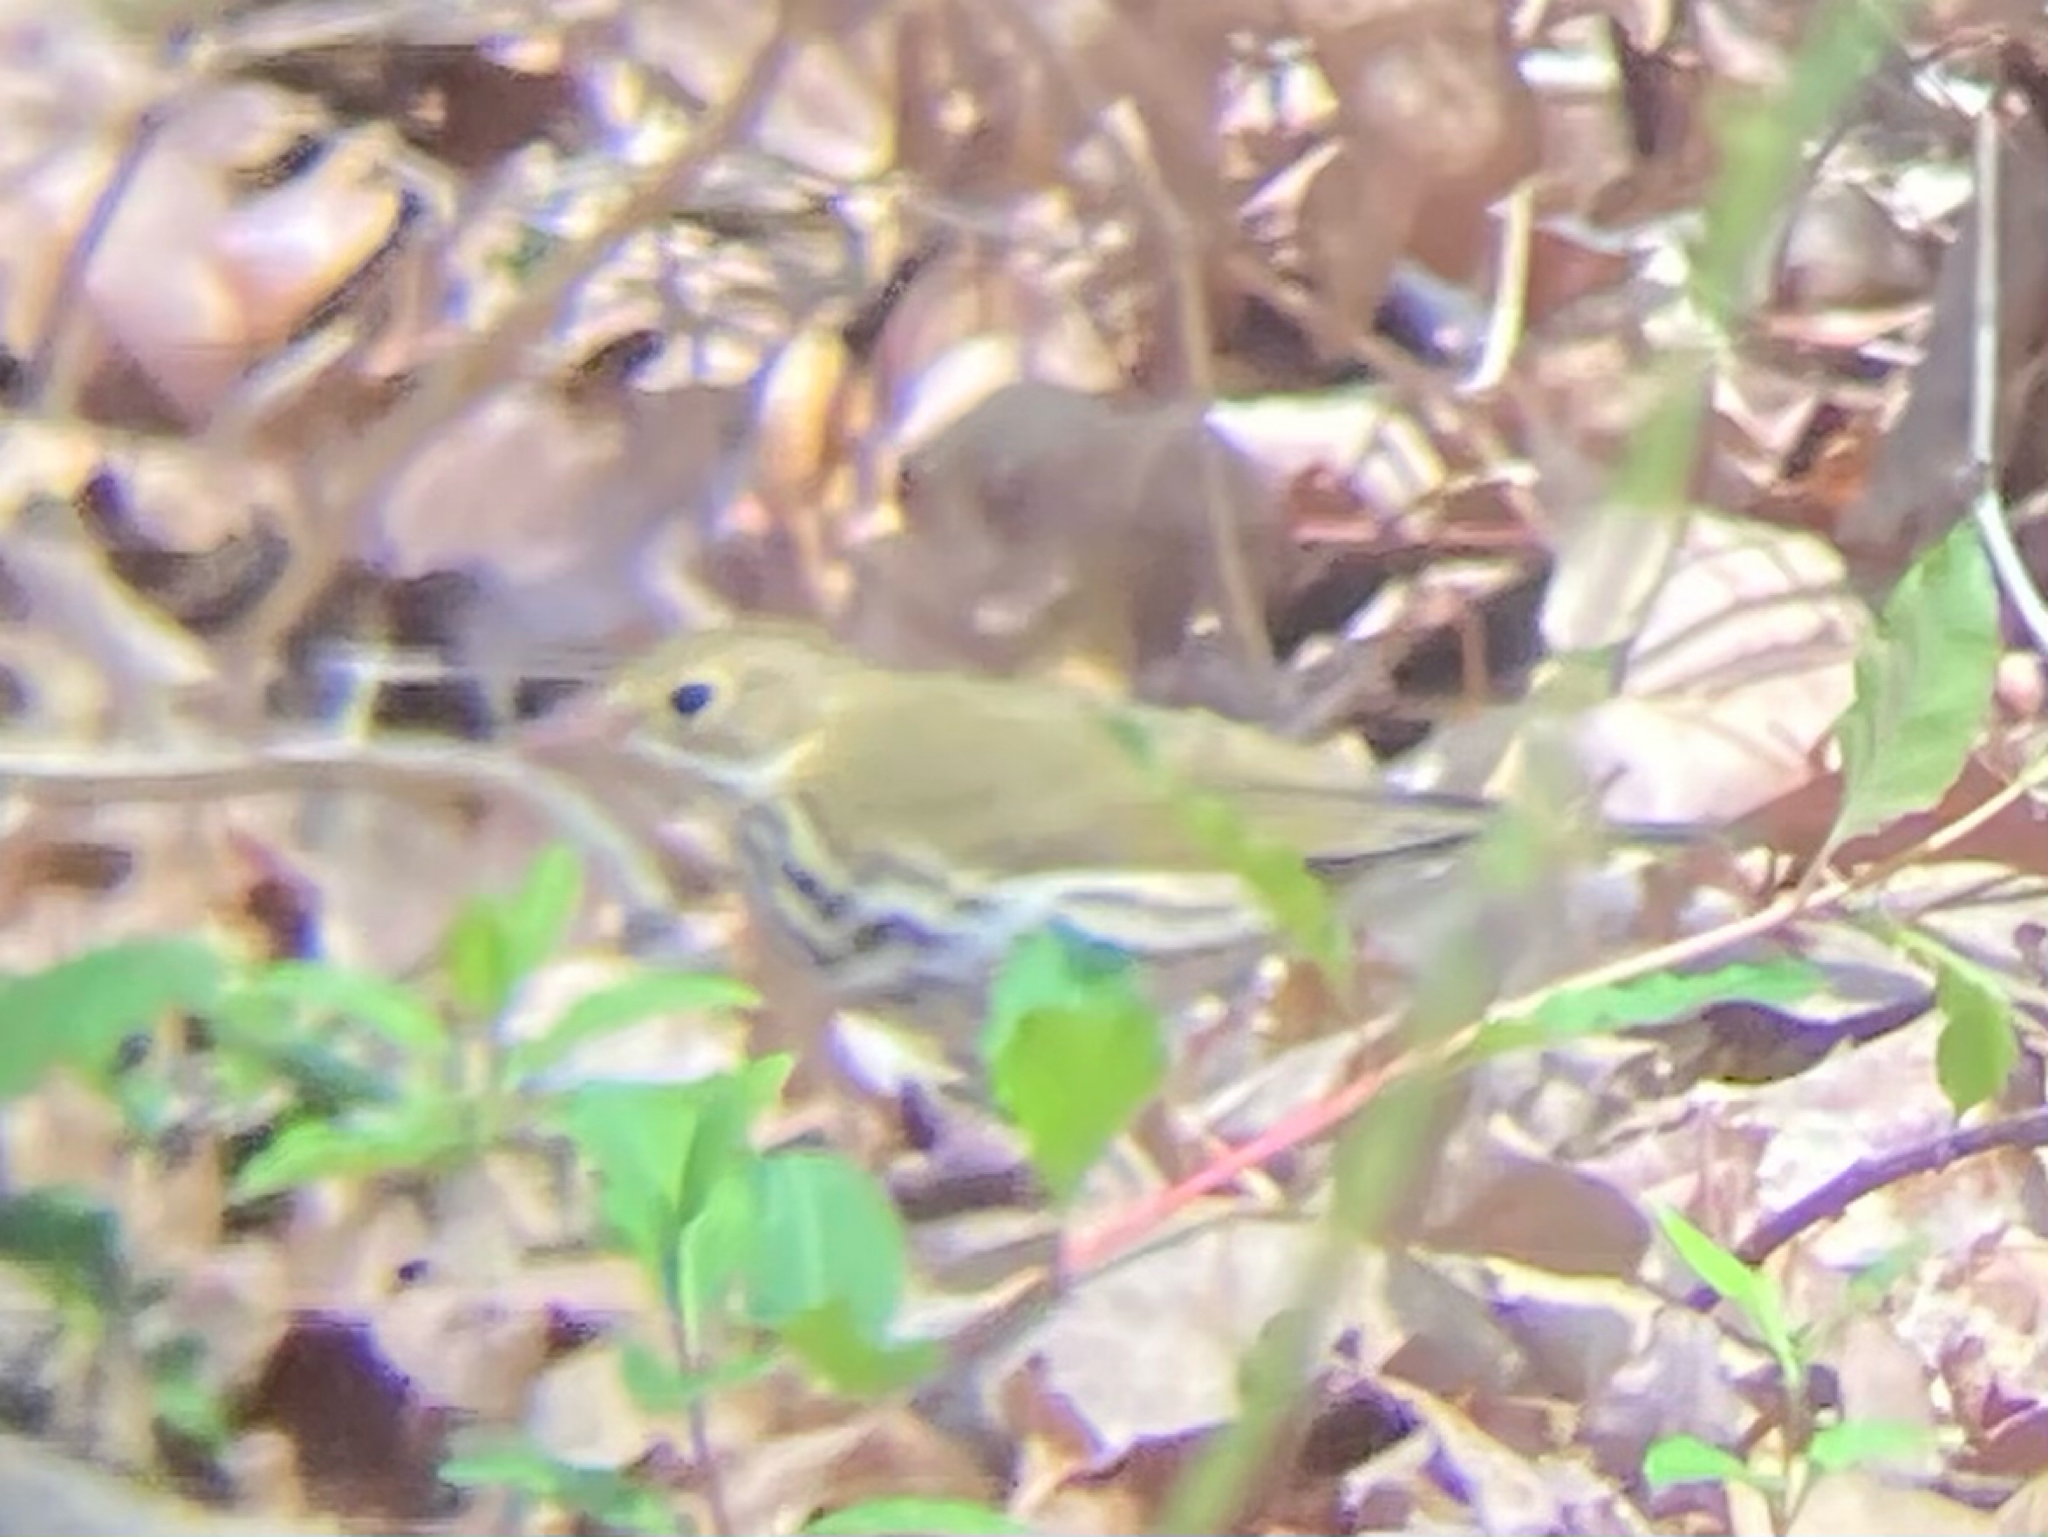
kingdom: Animalia
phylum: Chordata
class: Aves
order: Passeriformes
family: Parulidae
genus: Seiurus
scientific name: Seiurus aurocapilla
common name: Ovenbird
